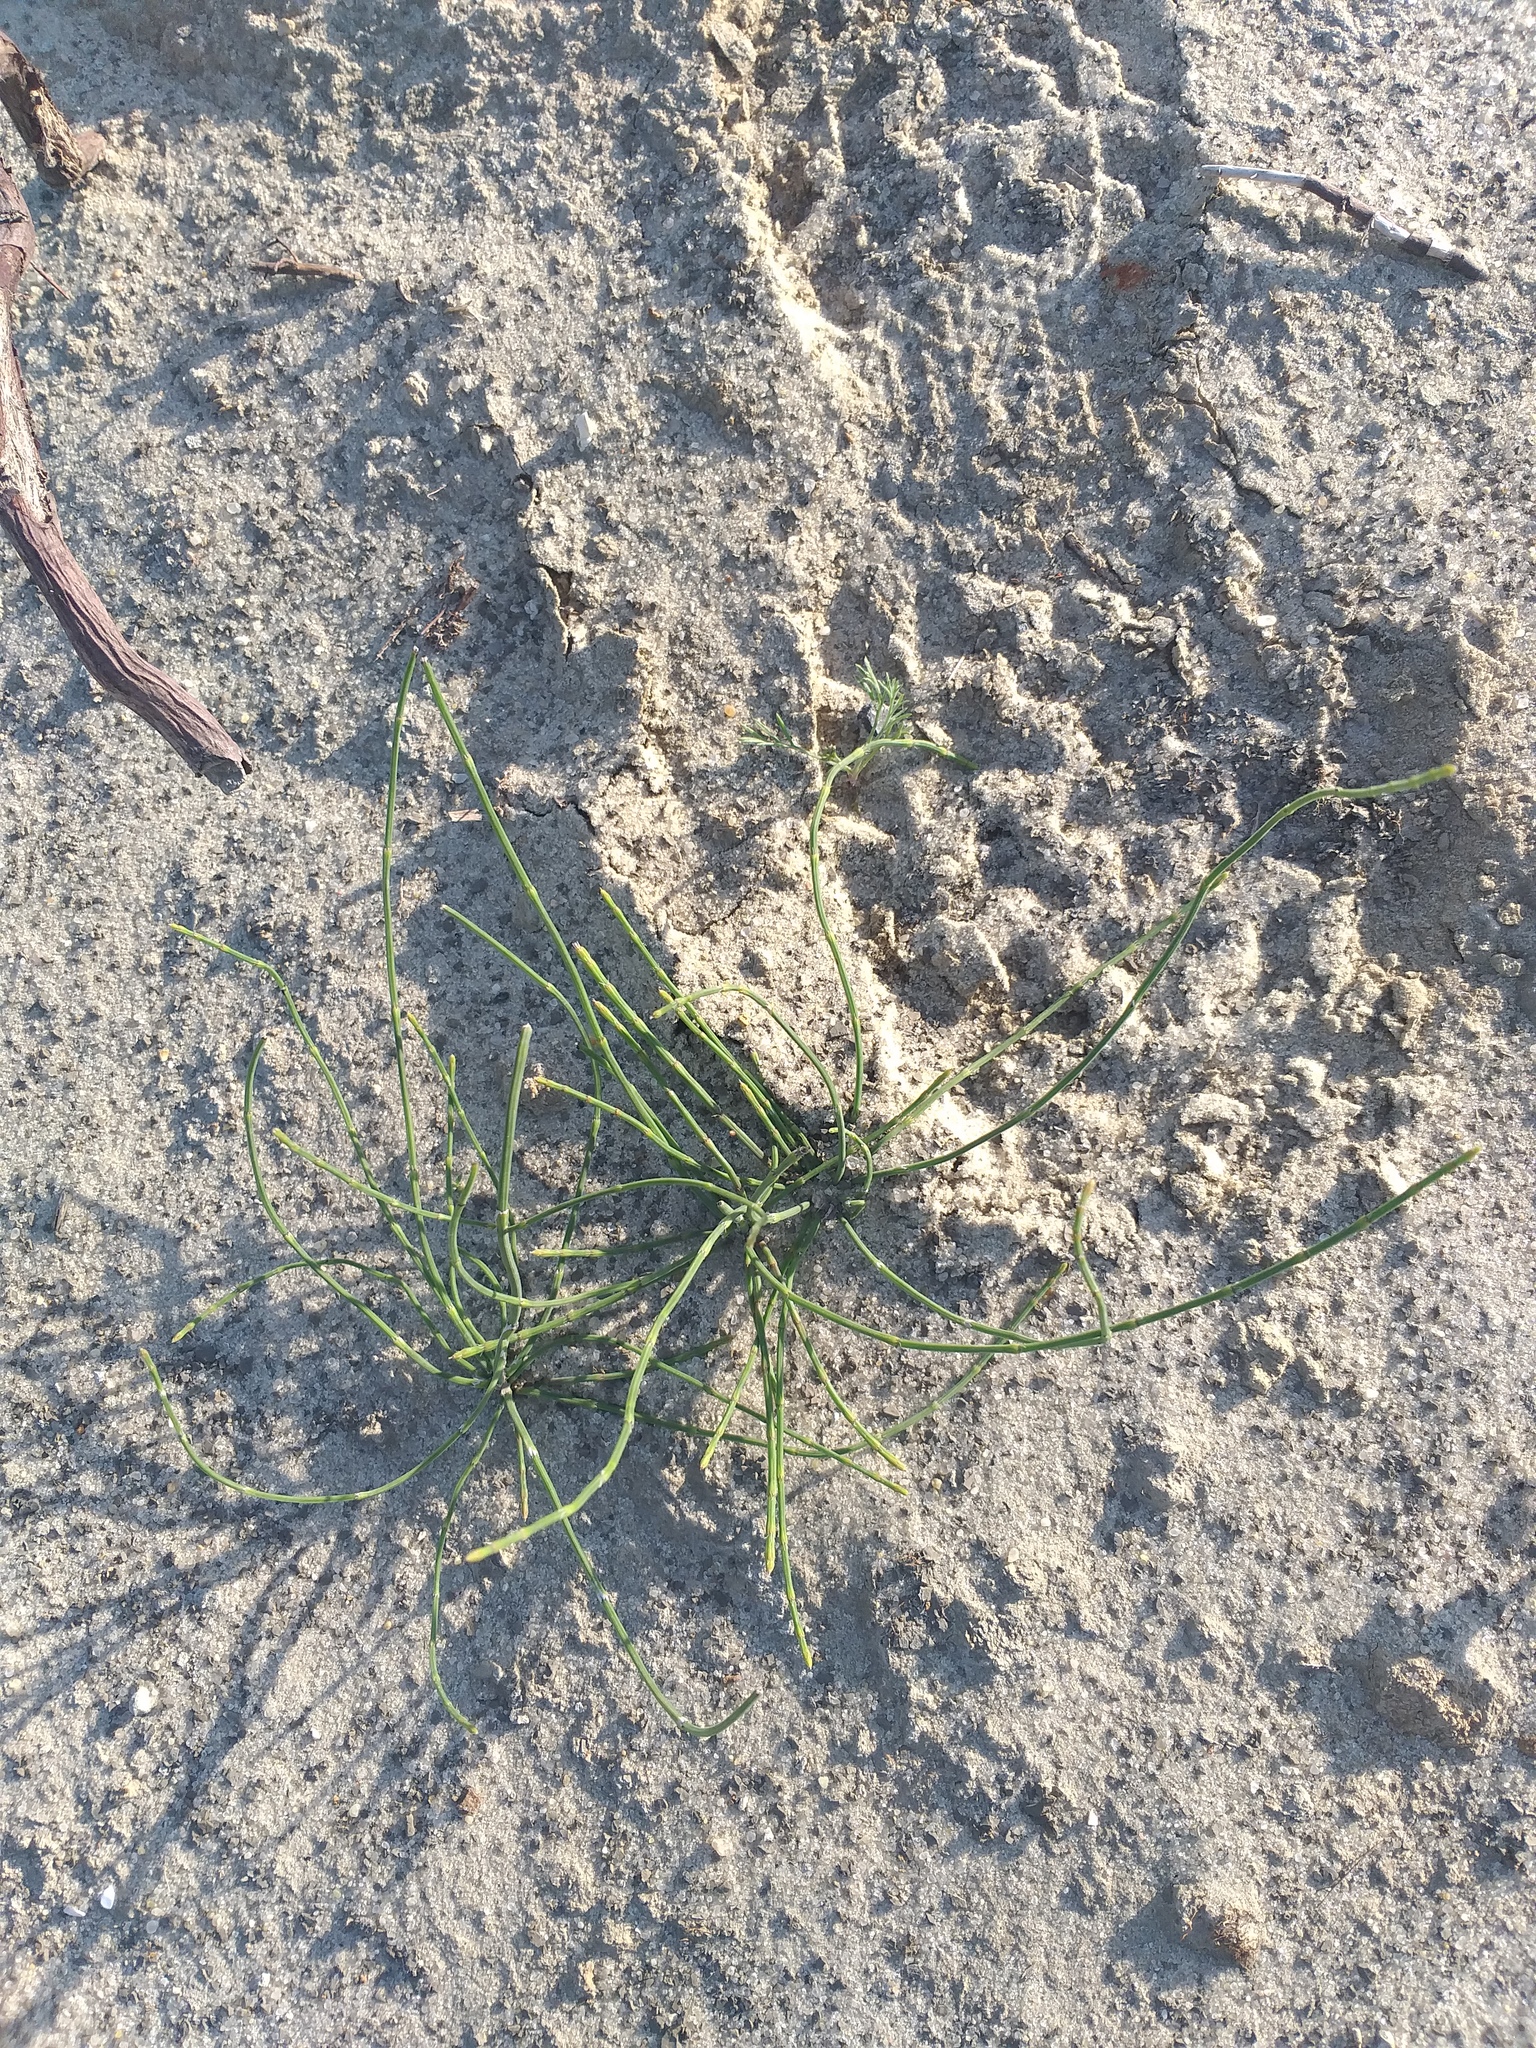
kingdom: Plantae
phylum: Tracheophyta
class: Polypodiopsida
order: Equisetales
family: Equisetaceae
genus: Equisetum
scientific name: Equisetum ramosissimum
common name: Branched horsetail
